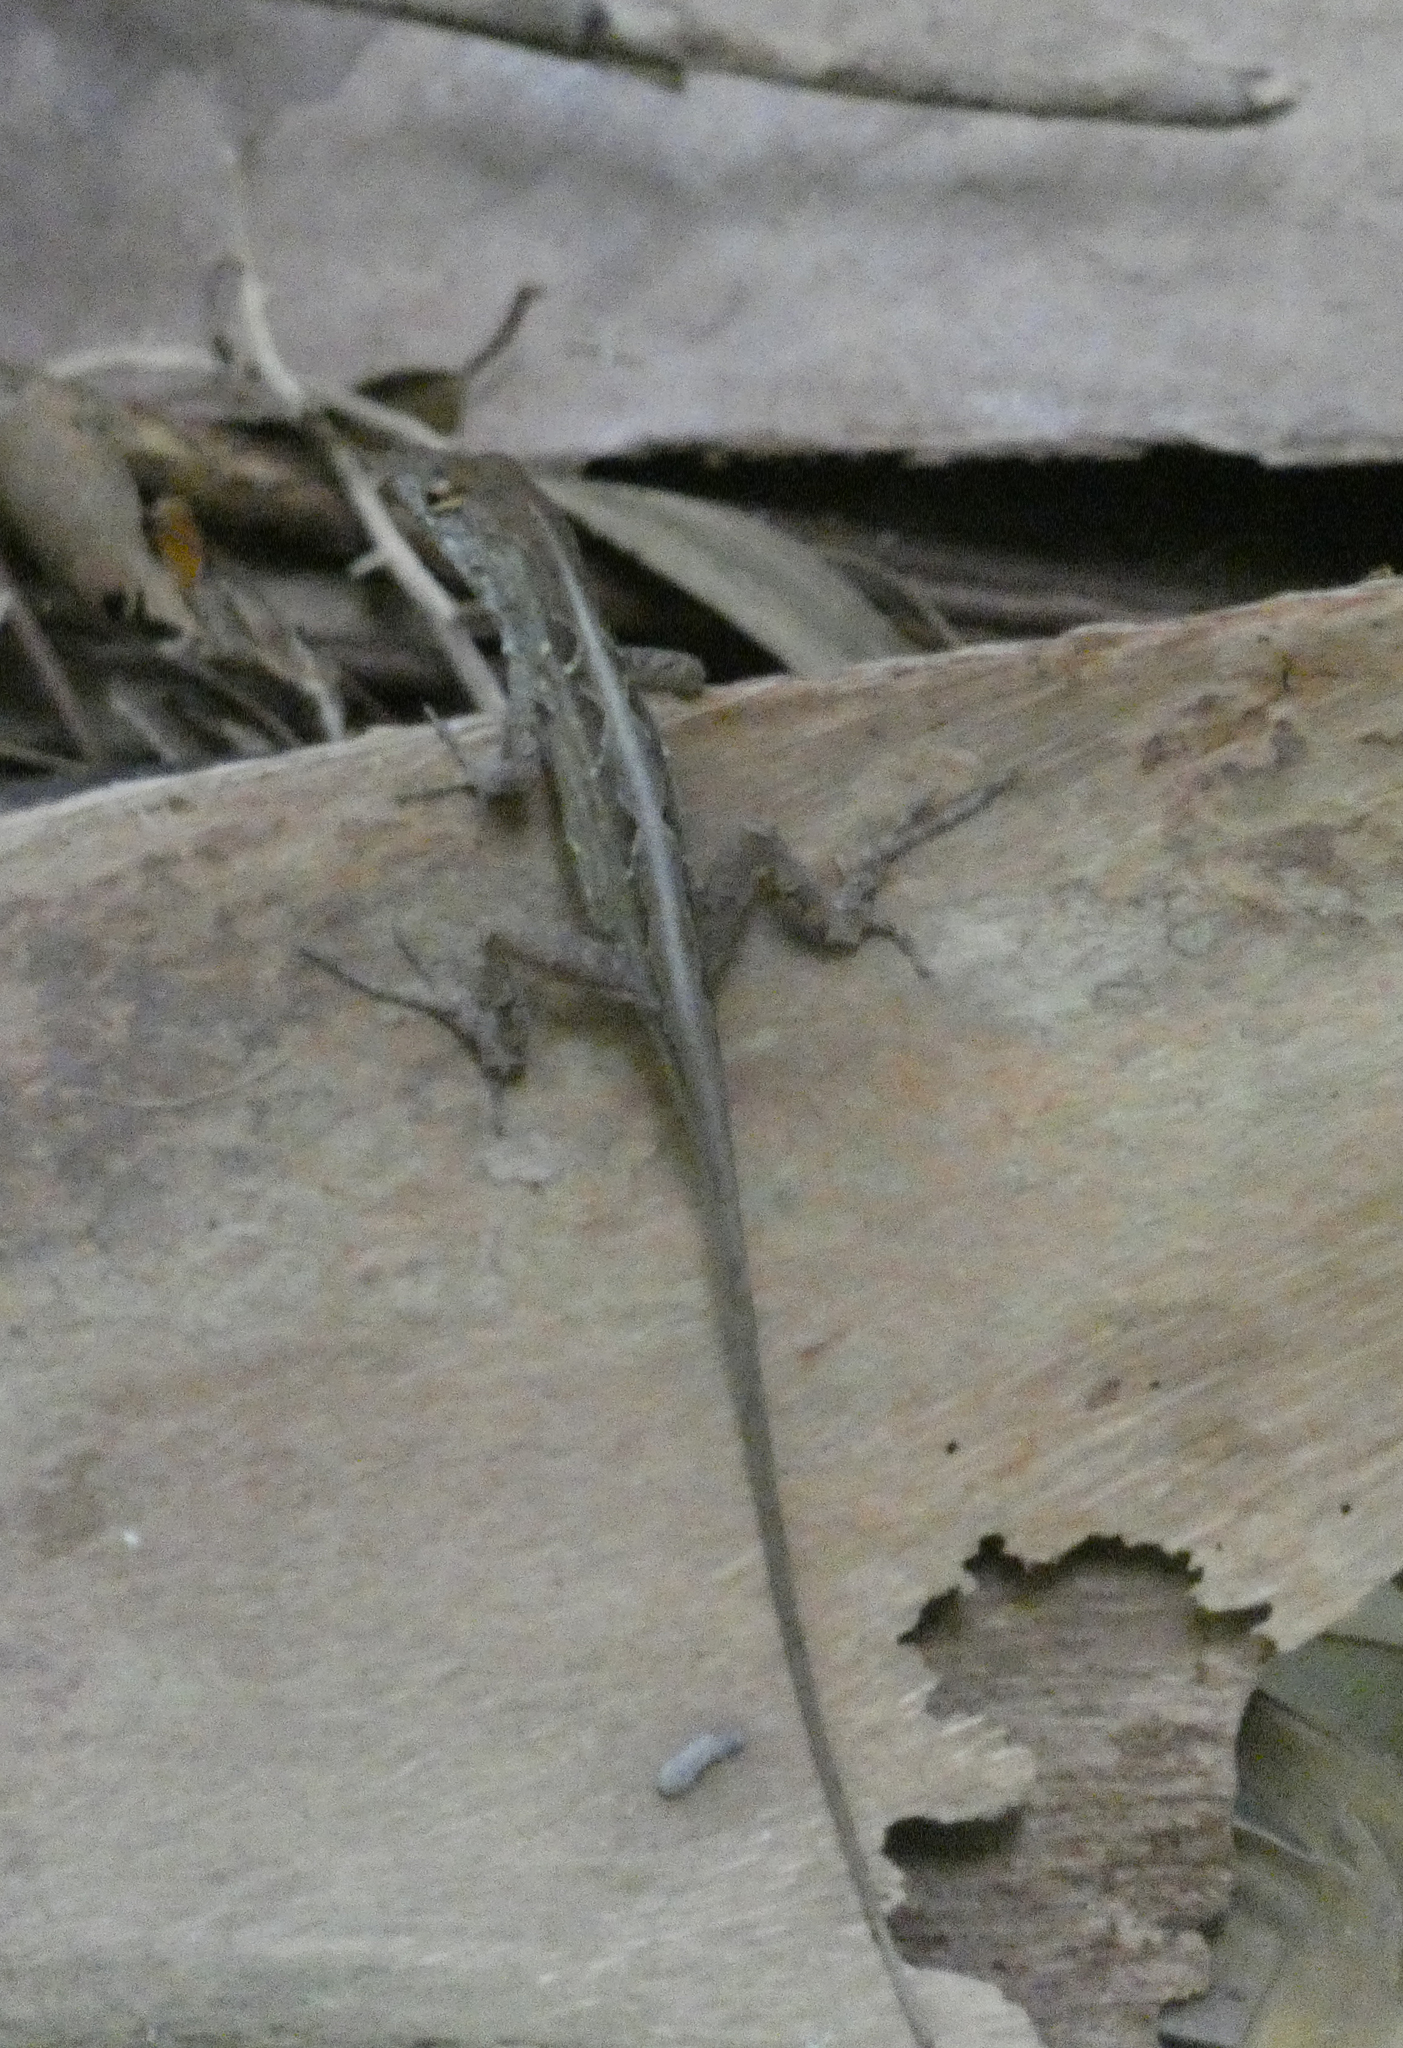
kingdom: Animalia
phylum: Chordata
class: Squamata
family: Dactyloidae
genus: Anolis
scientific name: Anolis sagrei
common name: Brown anole
